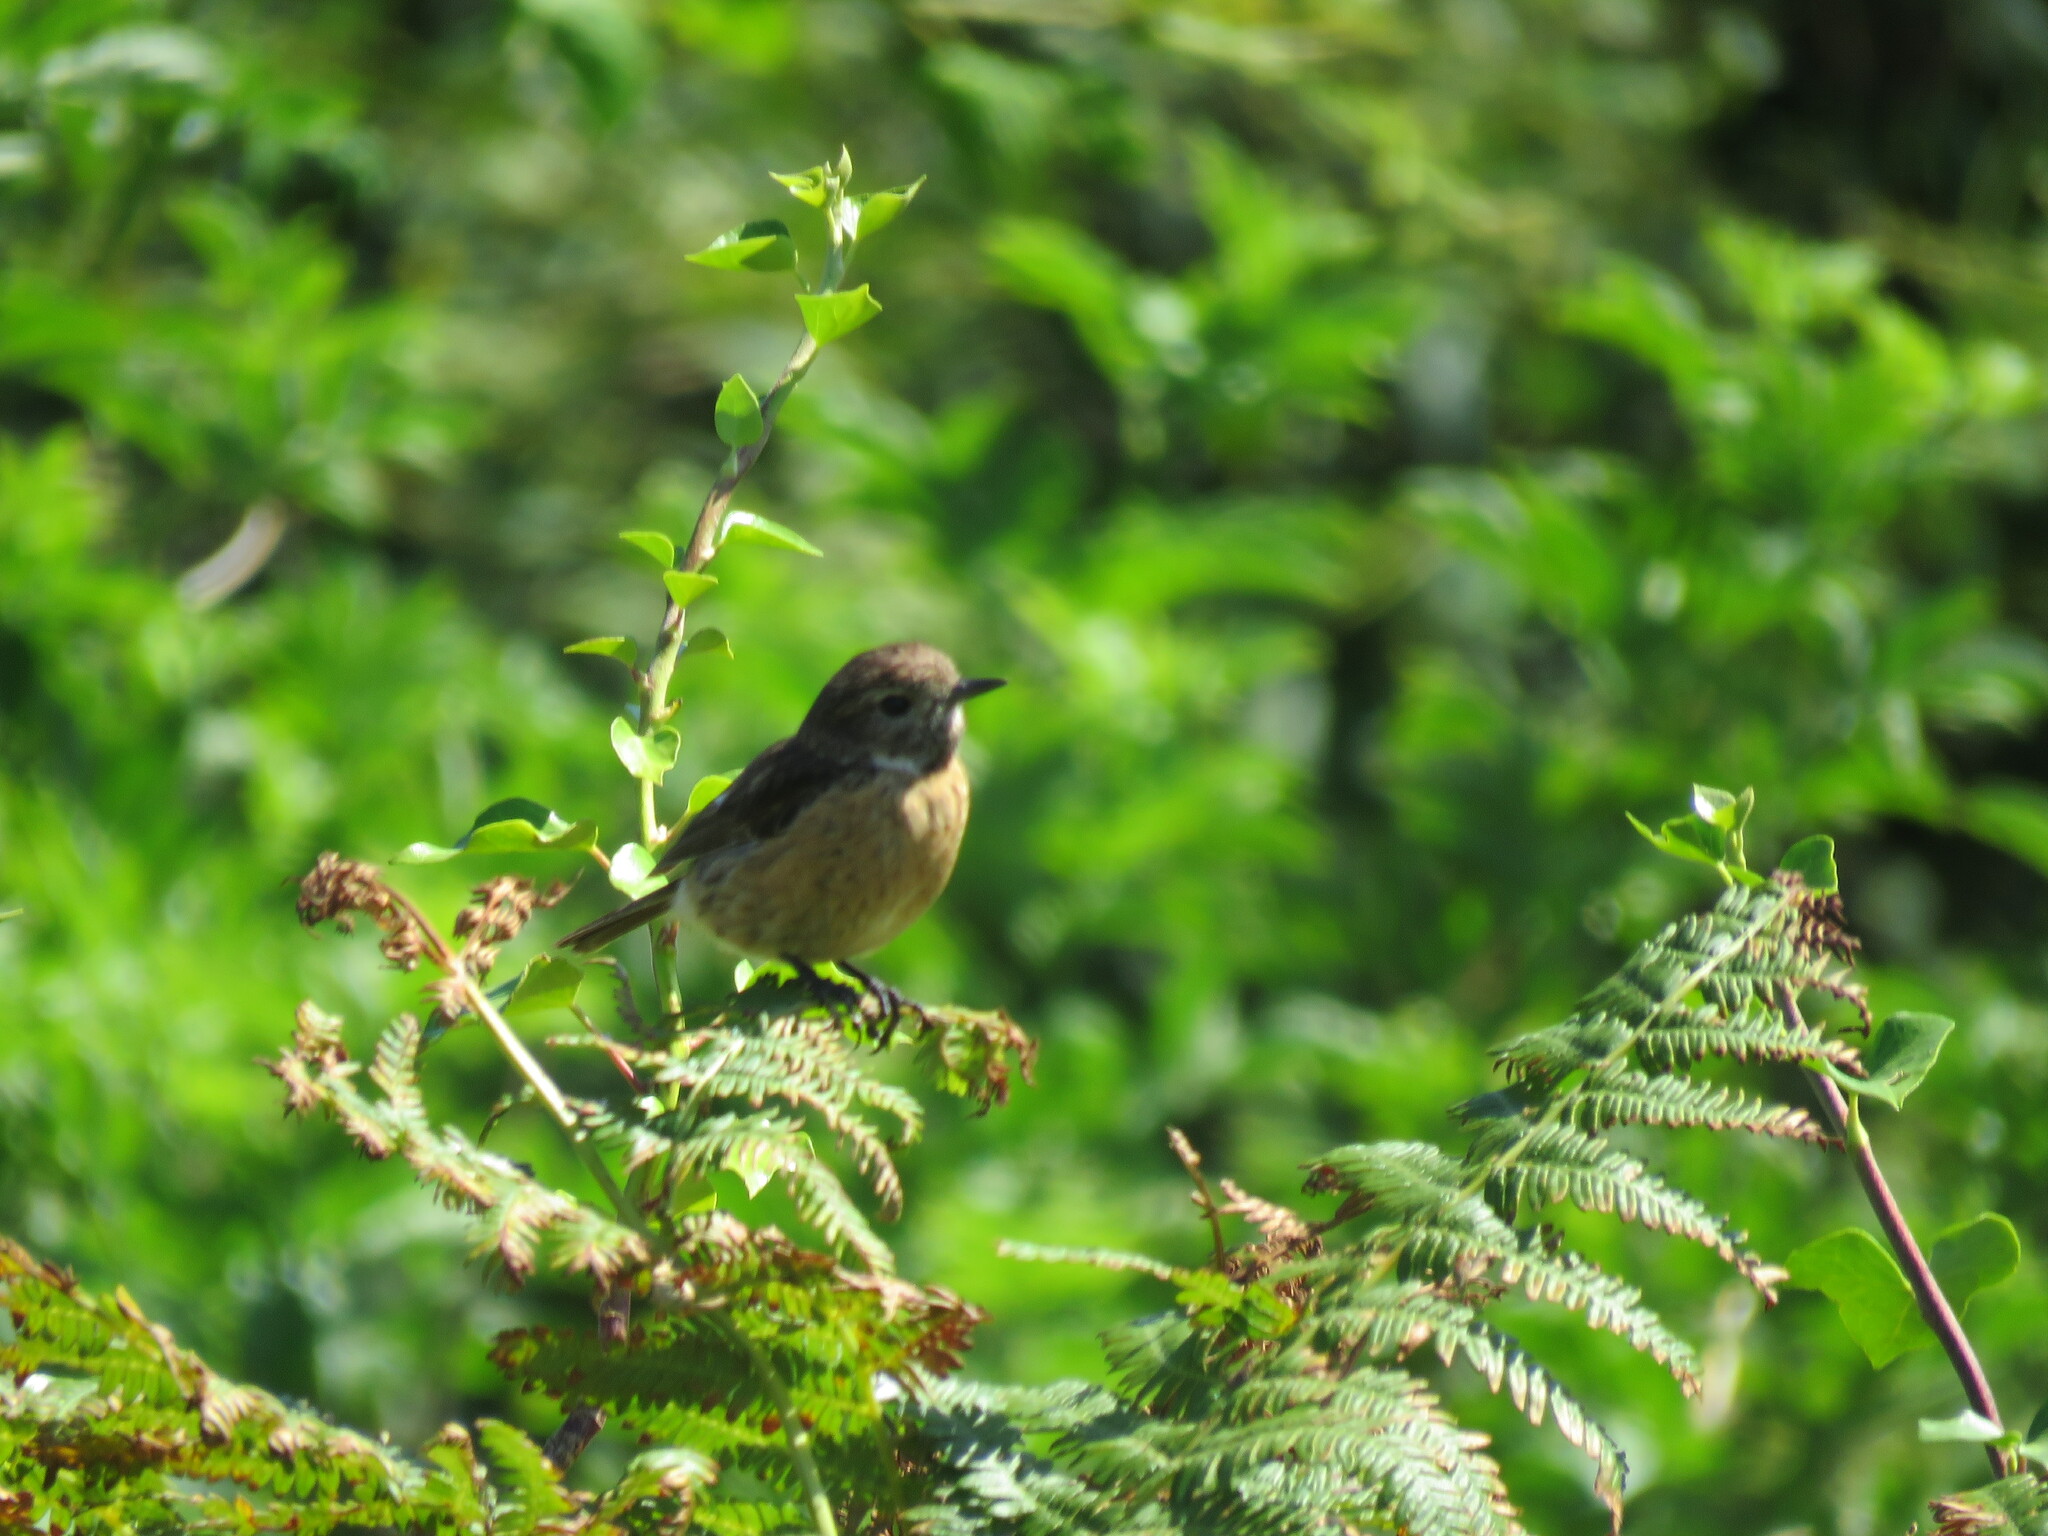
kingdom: Animalia
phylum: Chordata
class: Aves
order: Passeriformes
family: Muscicapidae
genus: Saxicola
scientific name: Saxicola rubicola
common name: European stonechat
